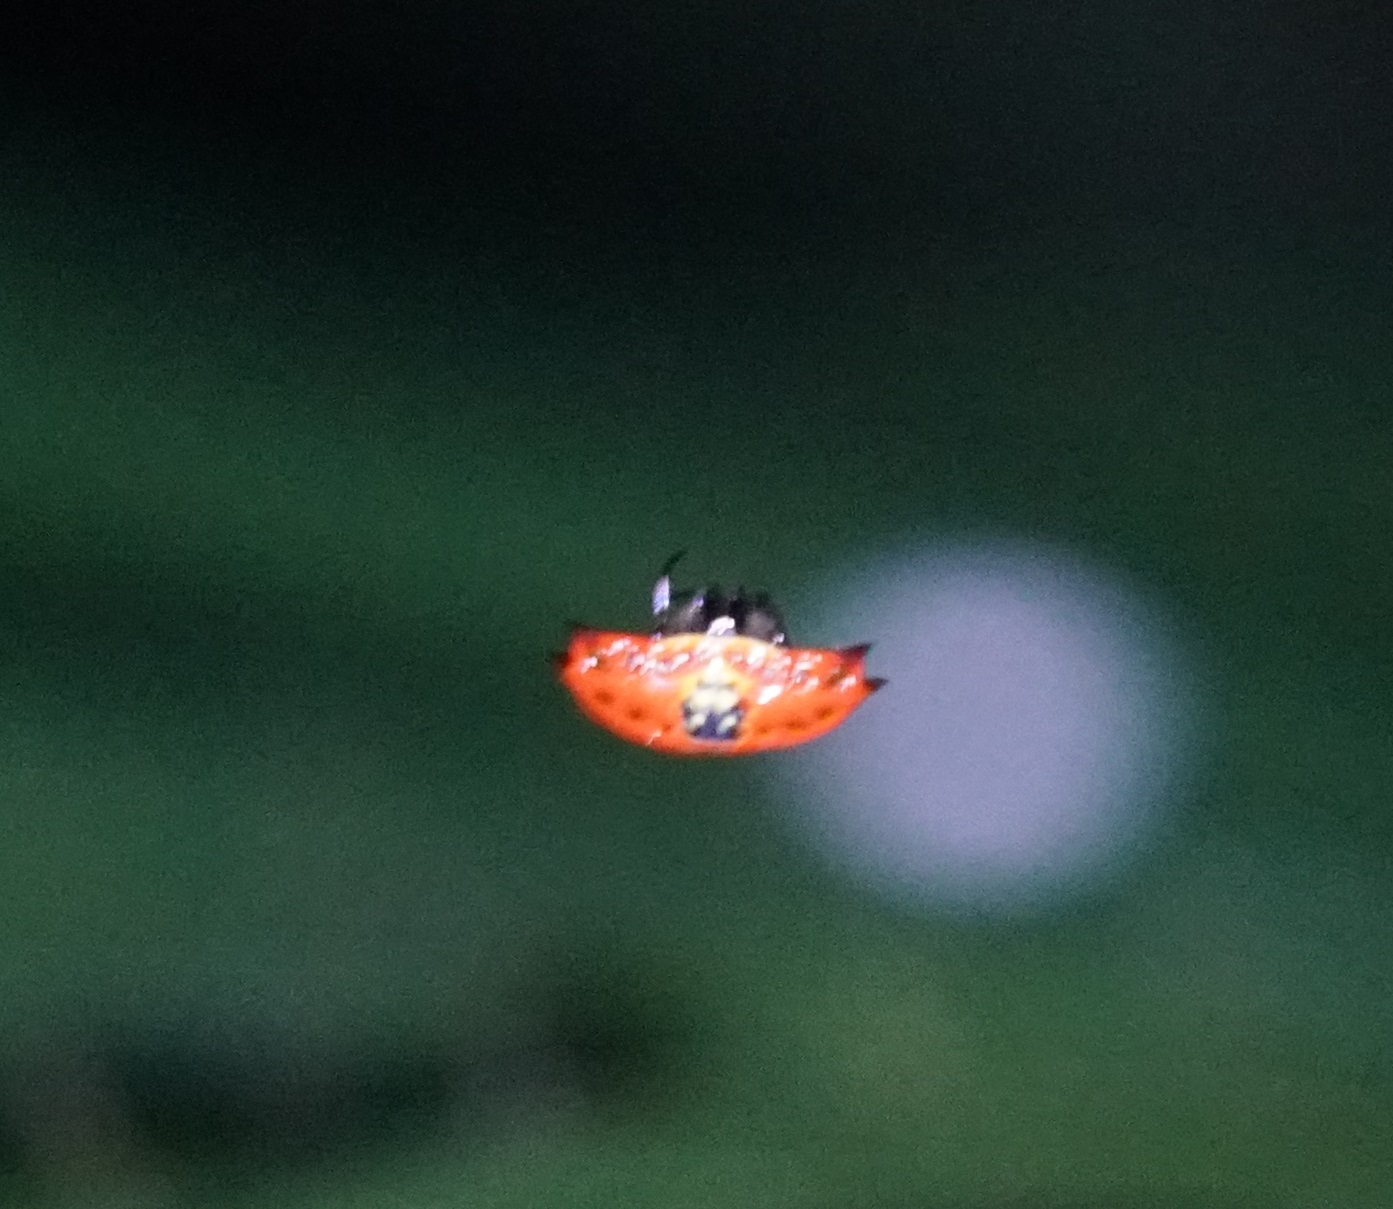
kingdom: Animalia
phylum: Arthropoda
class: Arachnida
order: Araneae
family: Araneidae
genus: Gasteracantha
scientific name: Gasteracantha quadrispinosa
